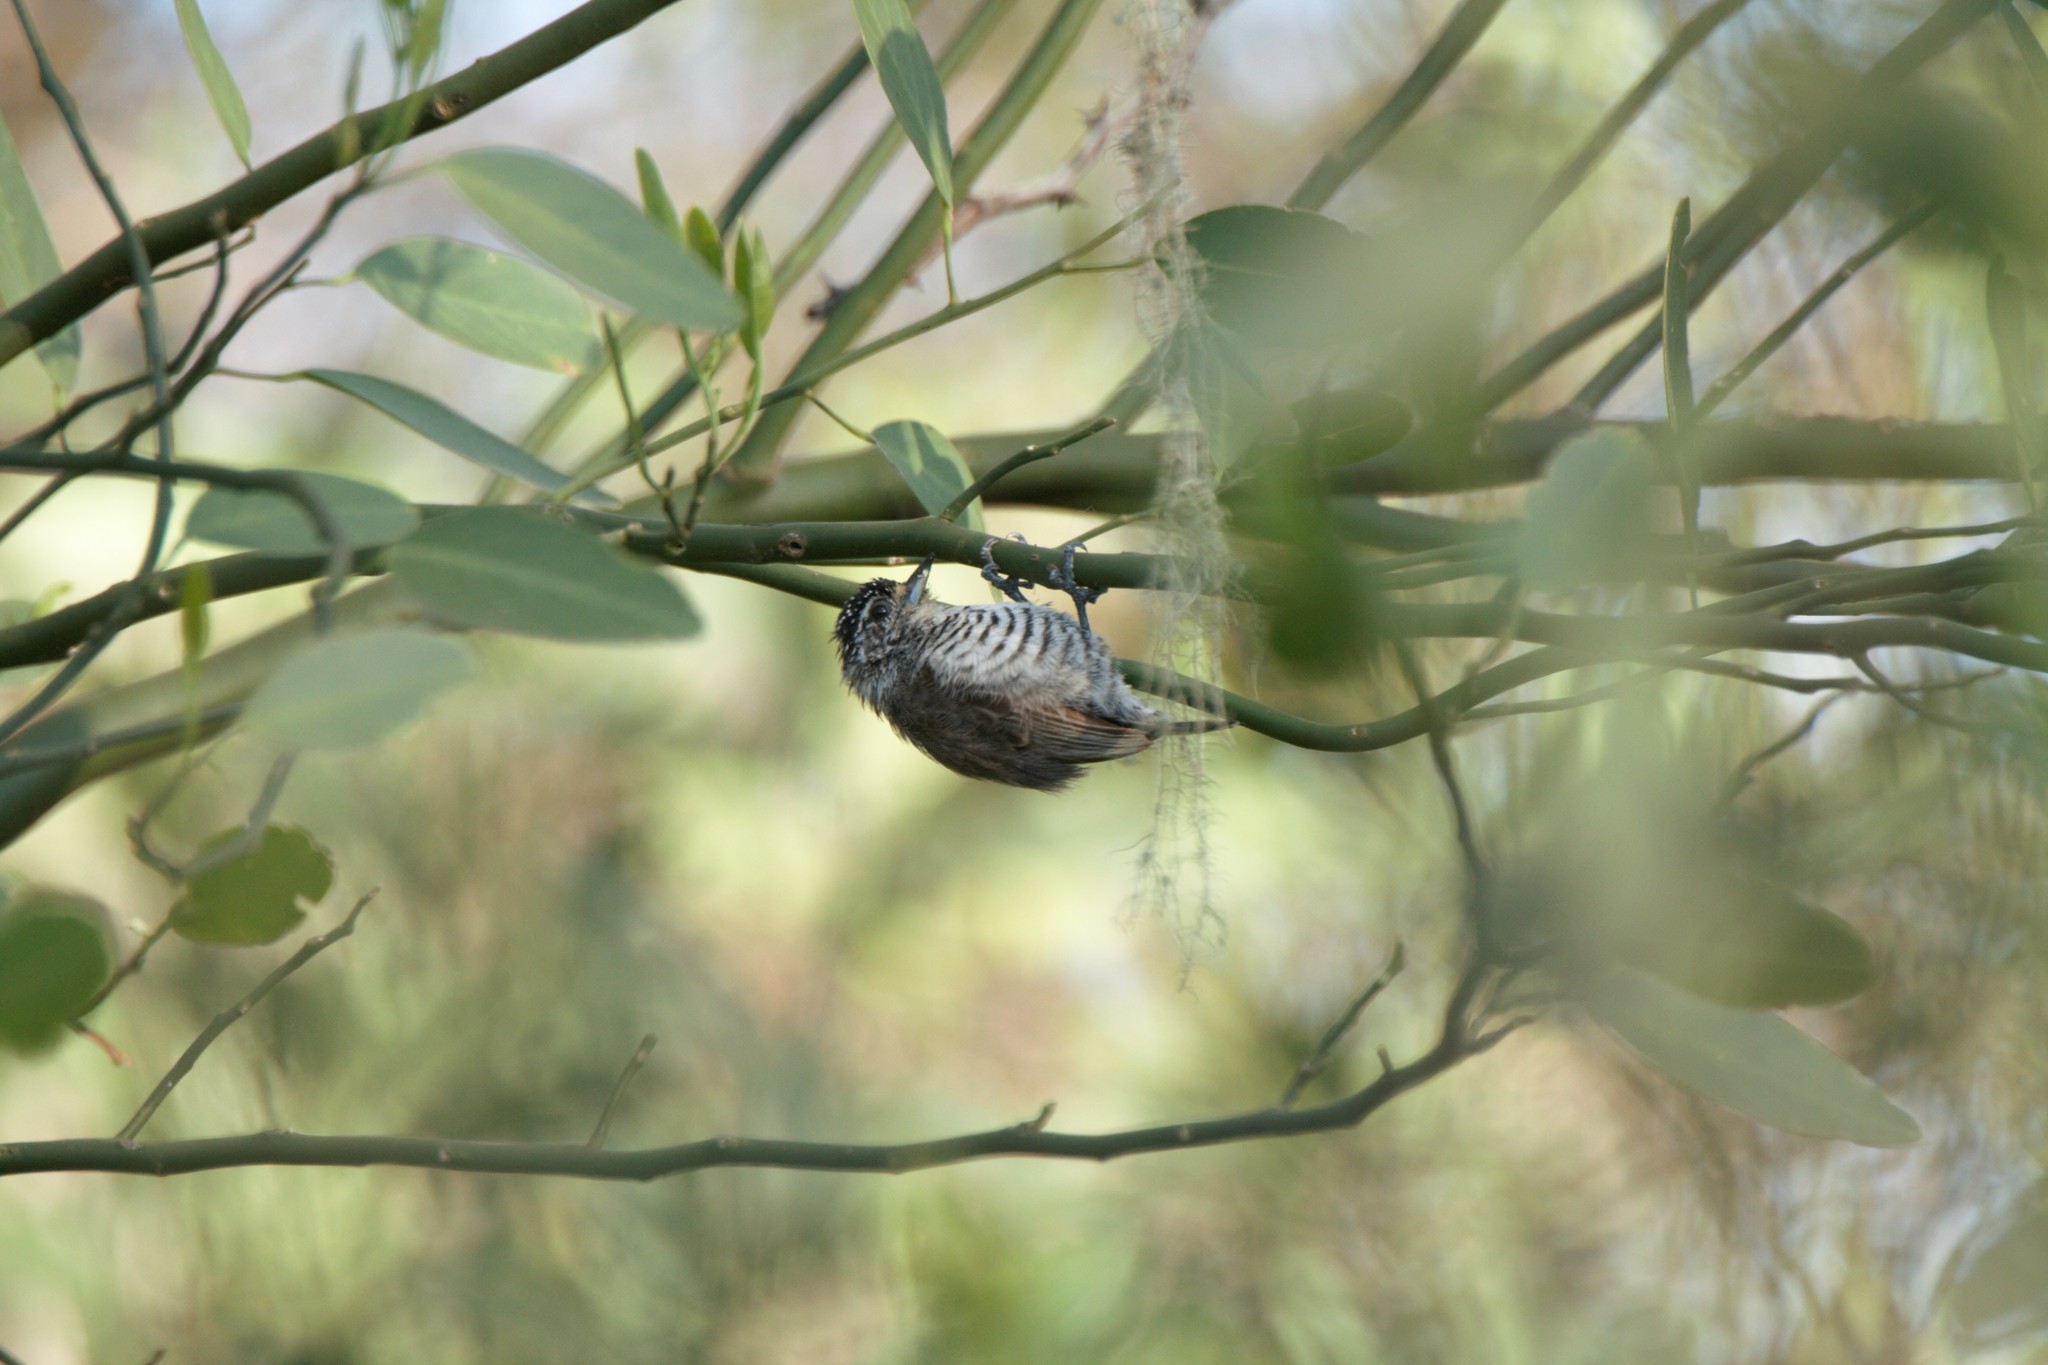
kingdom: Animalia
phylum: Chordata
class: Aves
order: Piciformes
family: Picidae
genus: Picumnus
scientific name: Picumnus cirratus
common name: White-barred piculet
